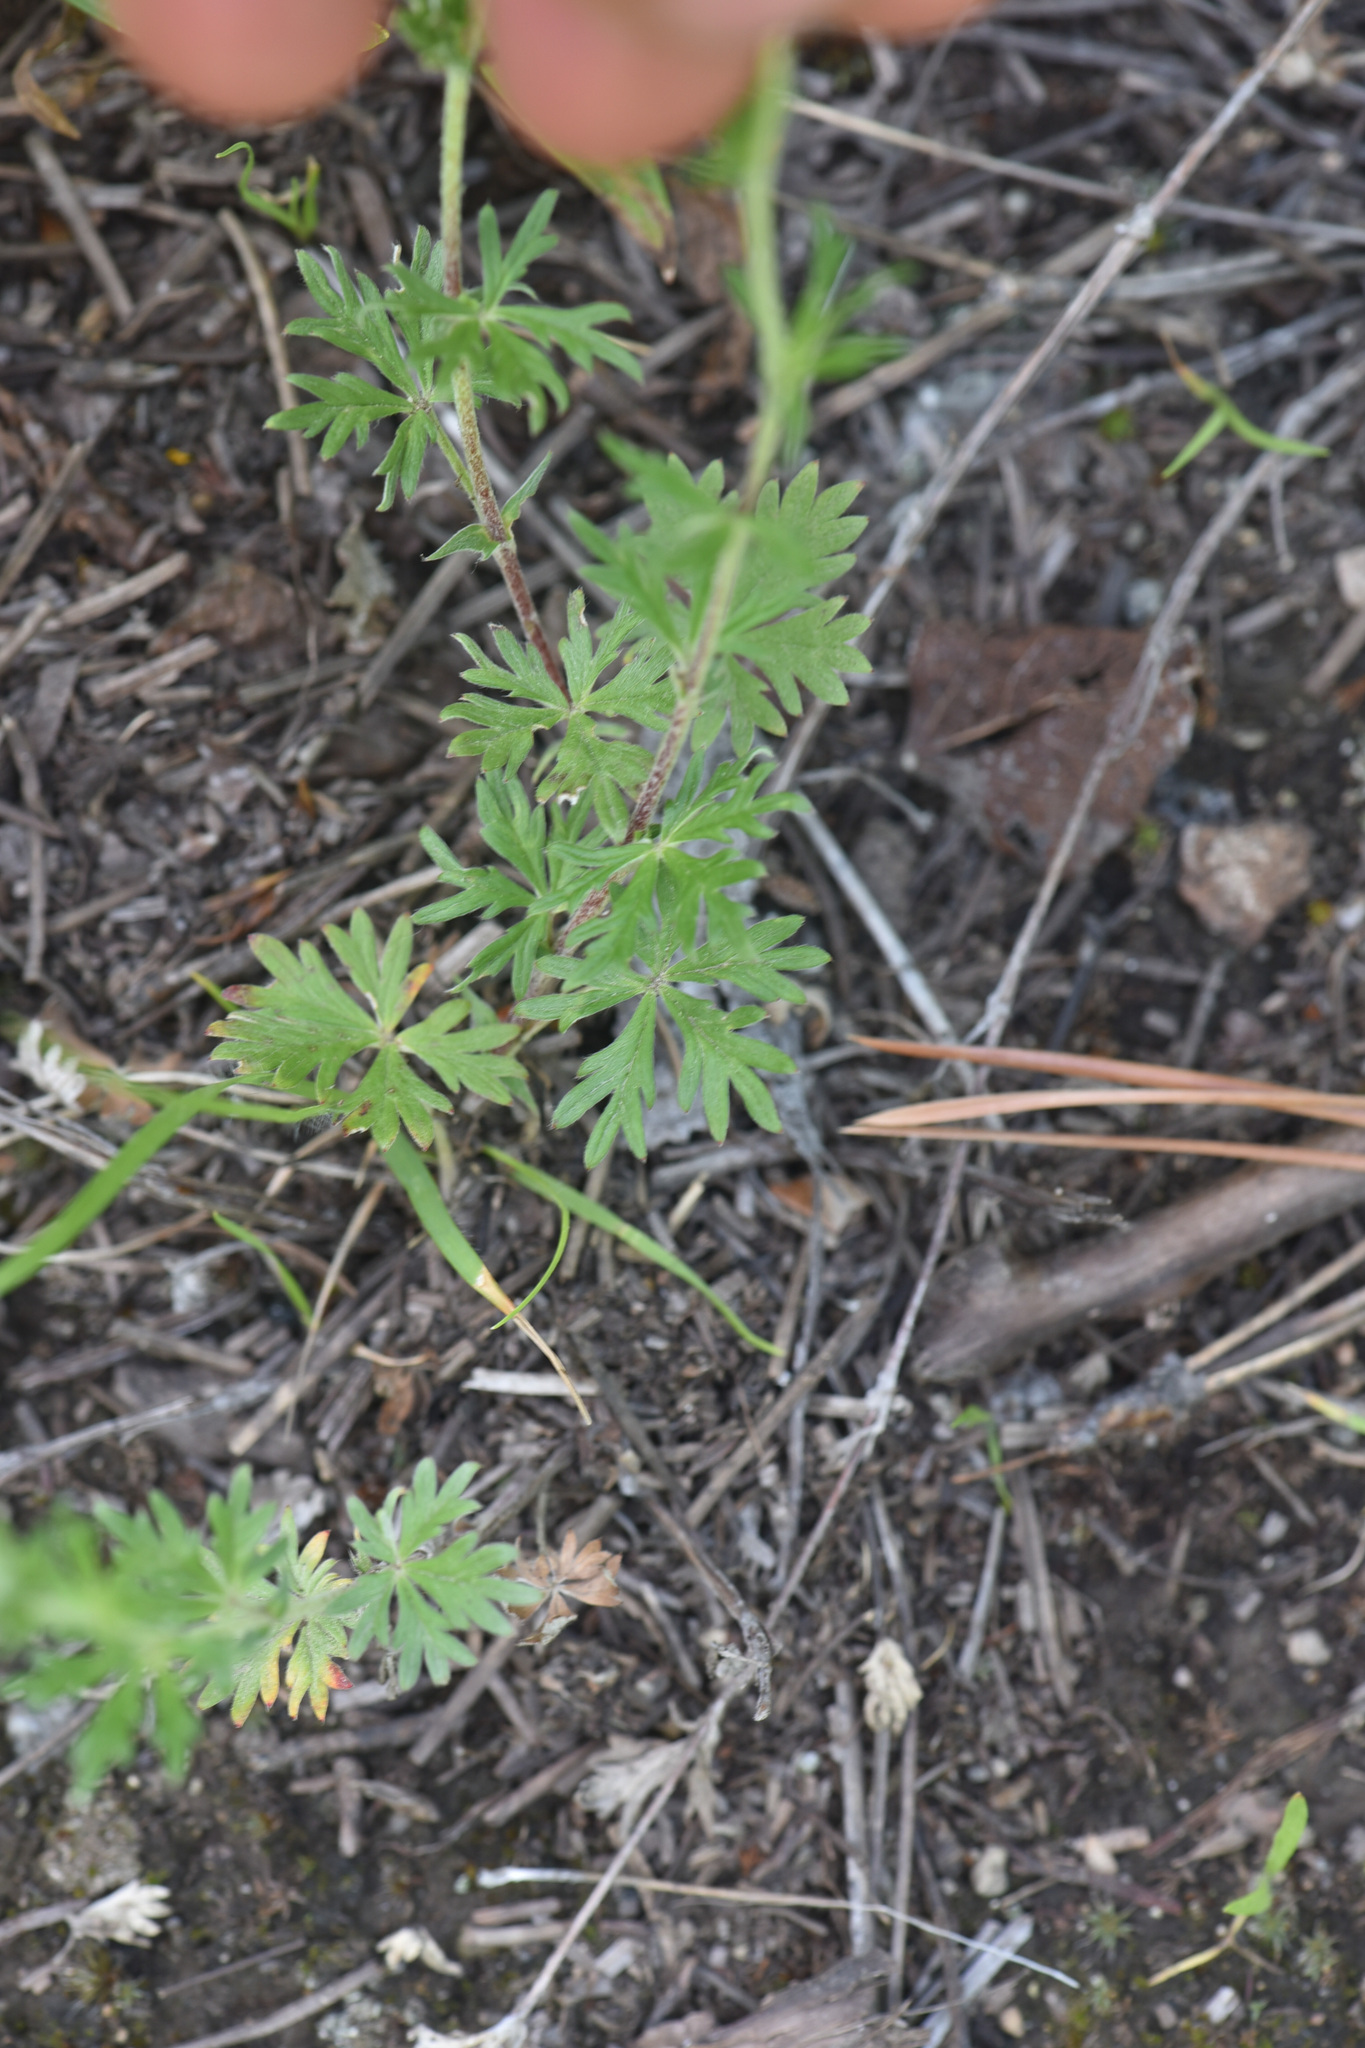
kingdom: Plantae
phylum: Tracheophyta
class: Magnoliopsida
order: Rosales
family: Rosaceae
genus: Potentilla
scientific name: Potentilla argentea
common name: Hoary cinquefoil
